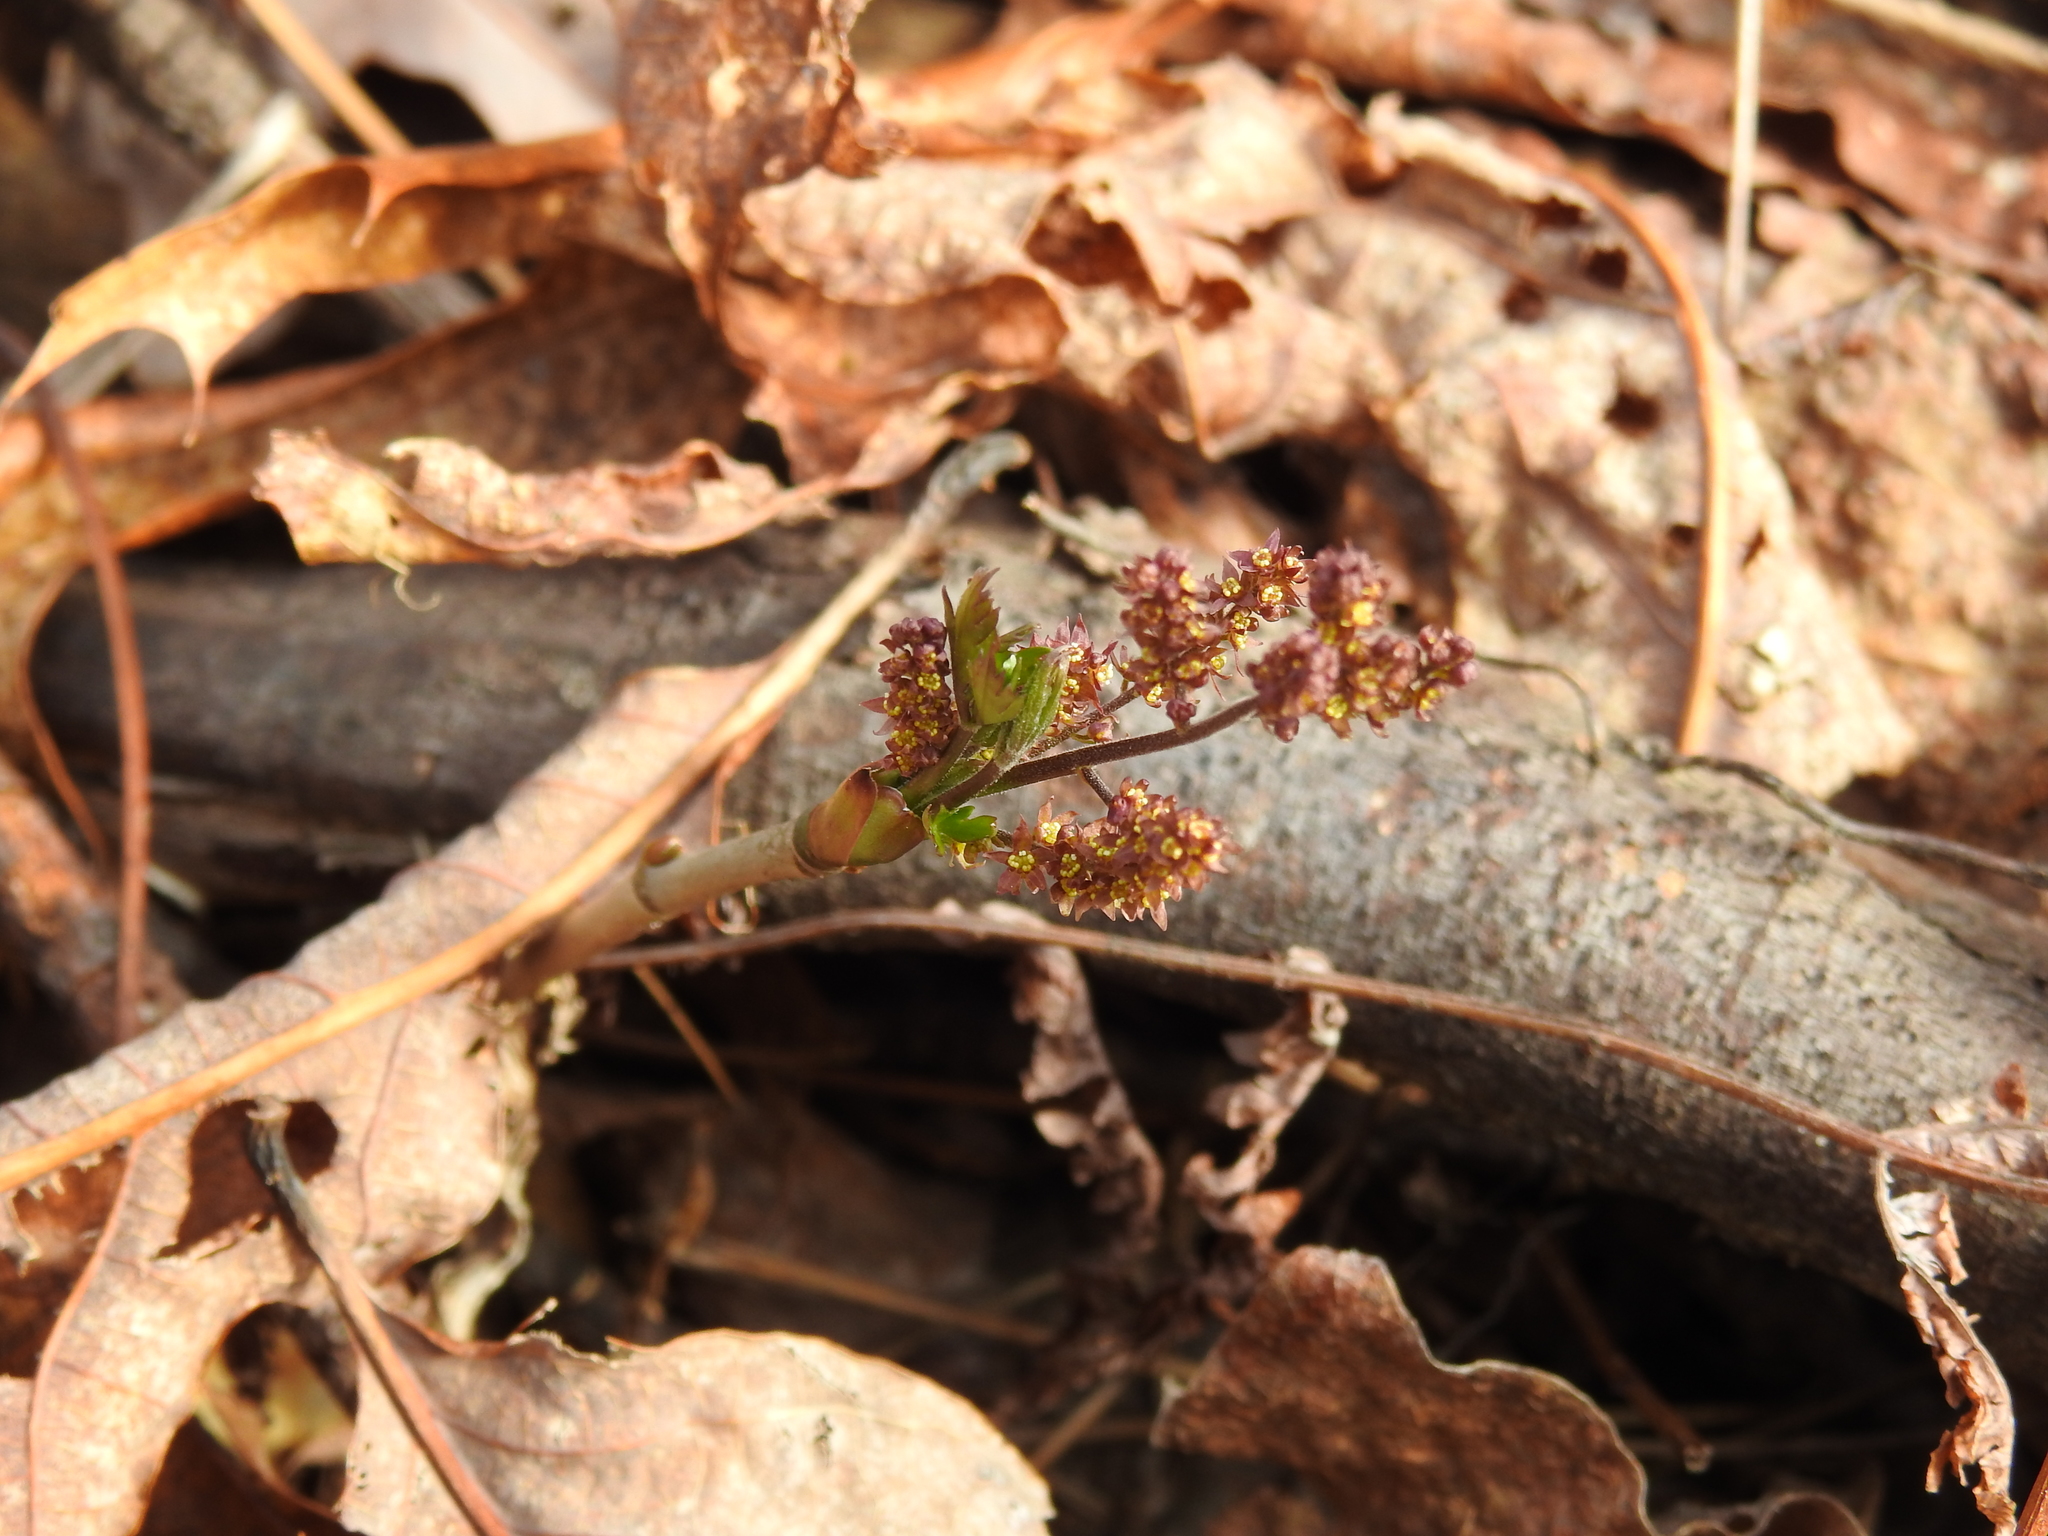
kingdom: Plantae
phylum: Tracheophyta
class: Magnoliopsida
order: Ranunculales
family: Ranunculaceae
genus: Xanthorhiza
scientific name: Xanthorhiza simplicissima
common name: Yellowroot
